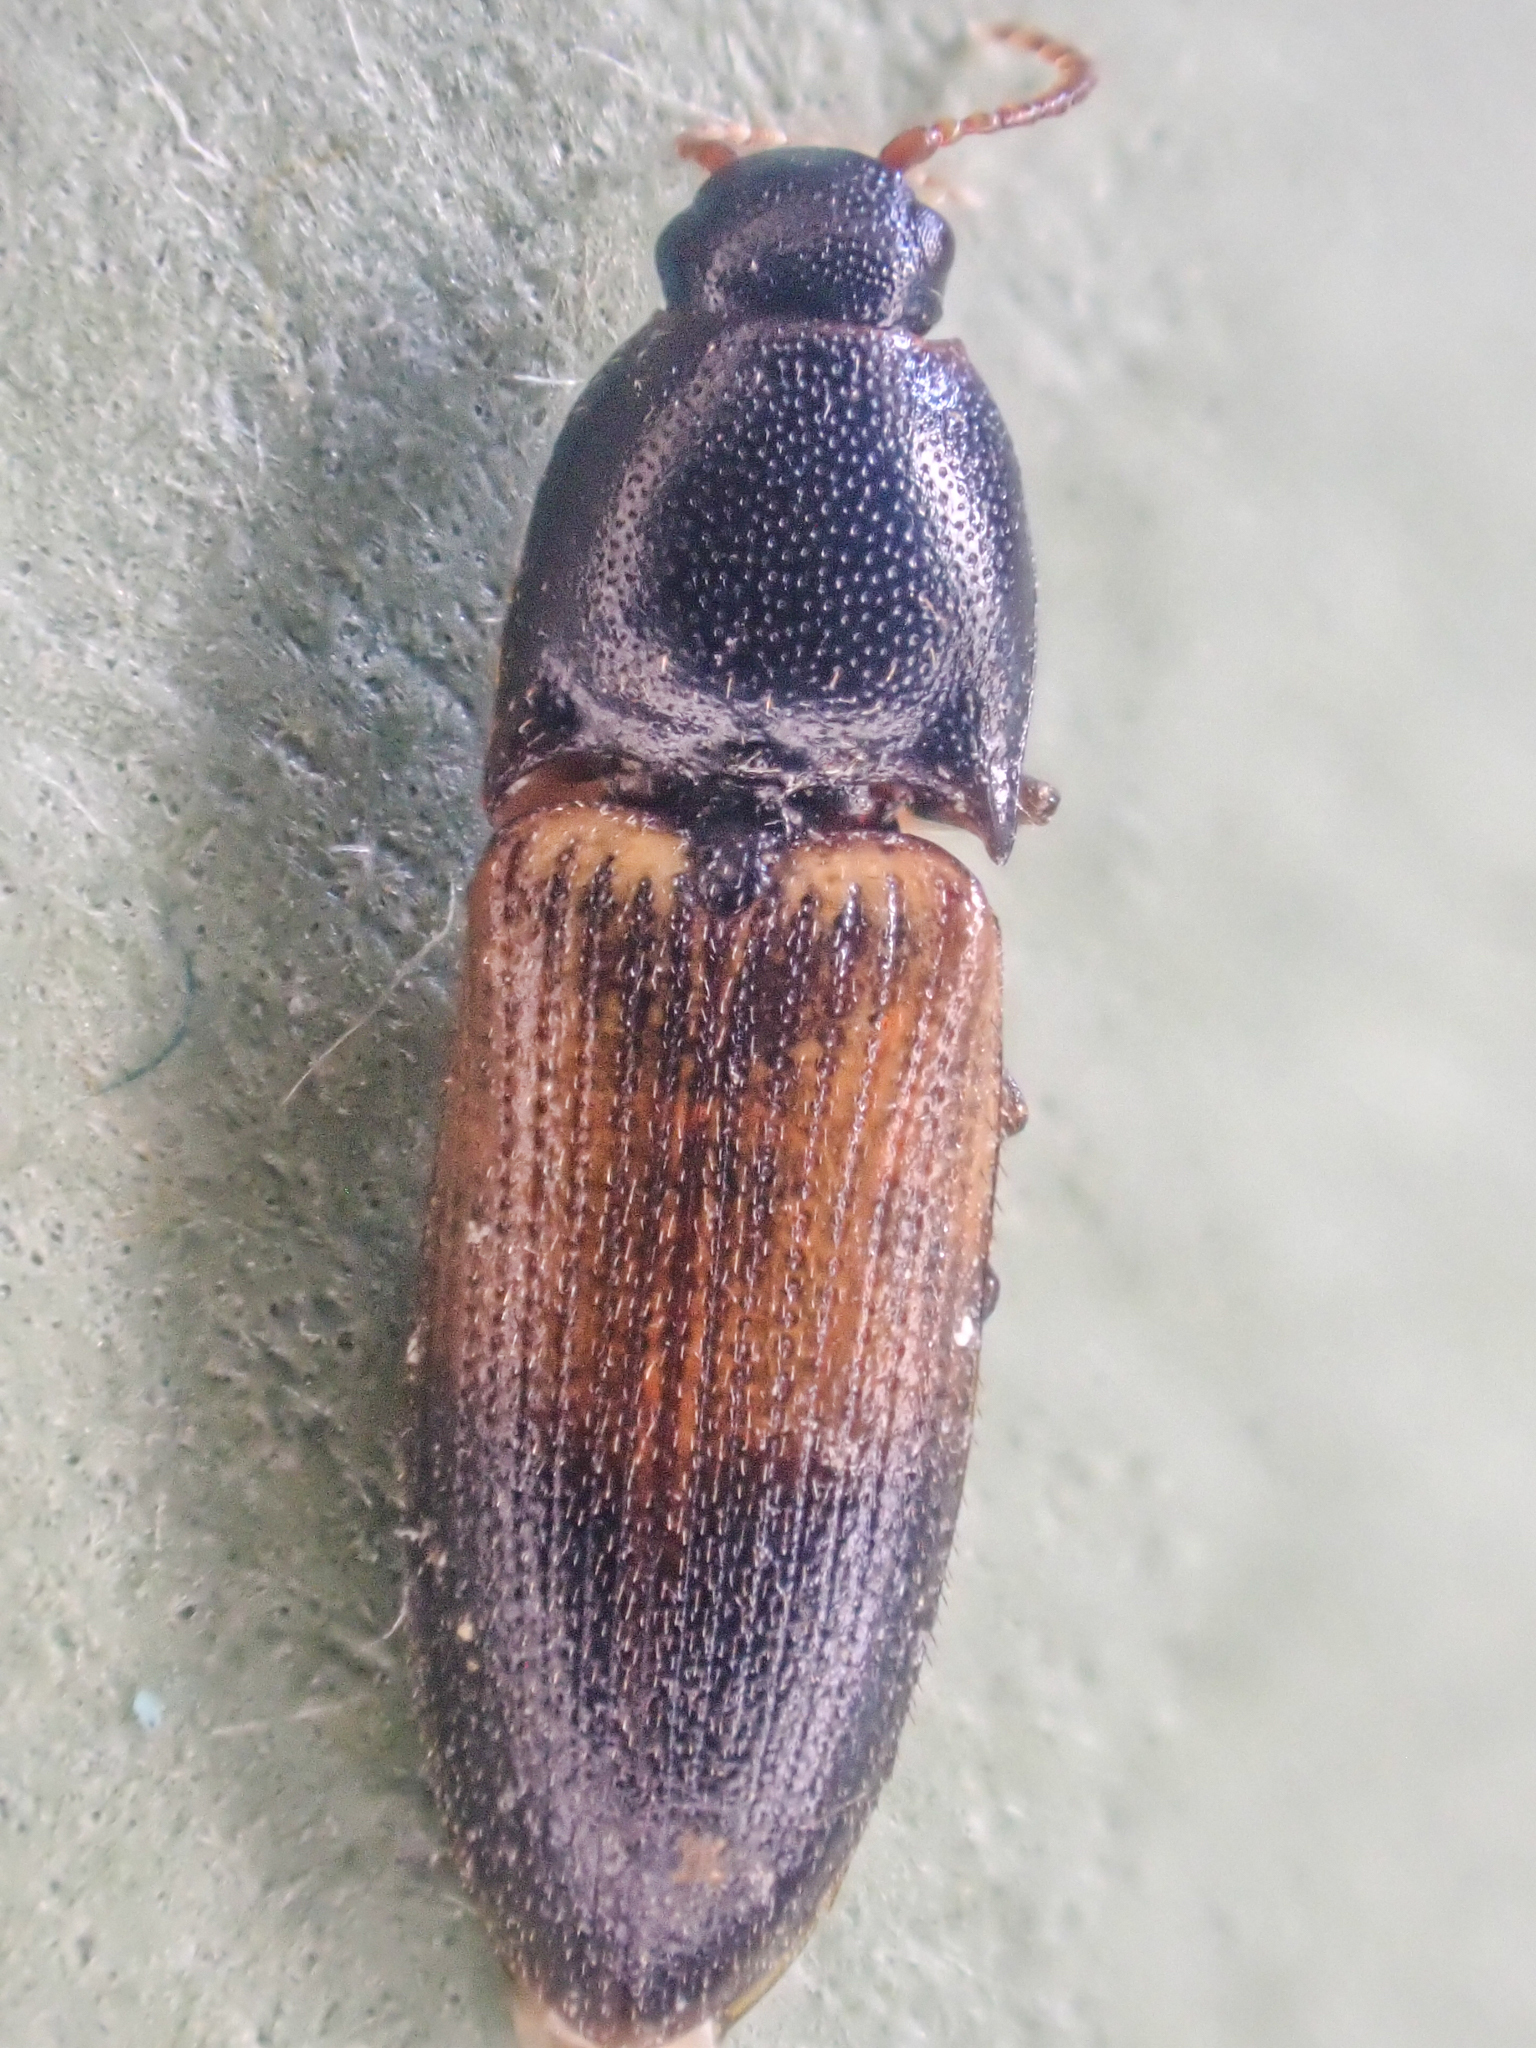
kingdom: Animalia
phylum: Arthropoda
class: Insecta
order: Coleoptera
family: Elateridae
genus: Ampedus
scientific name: Ampedus pullus
